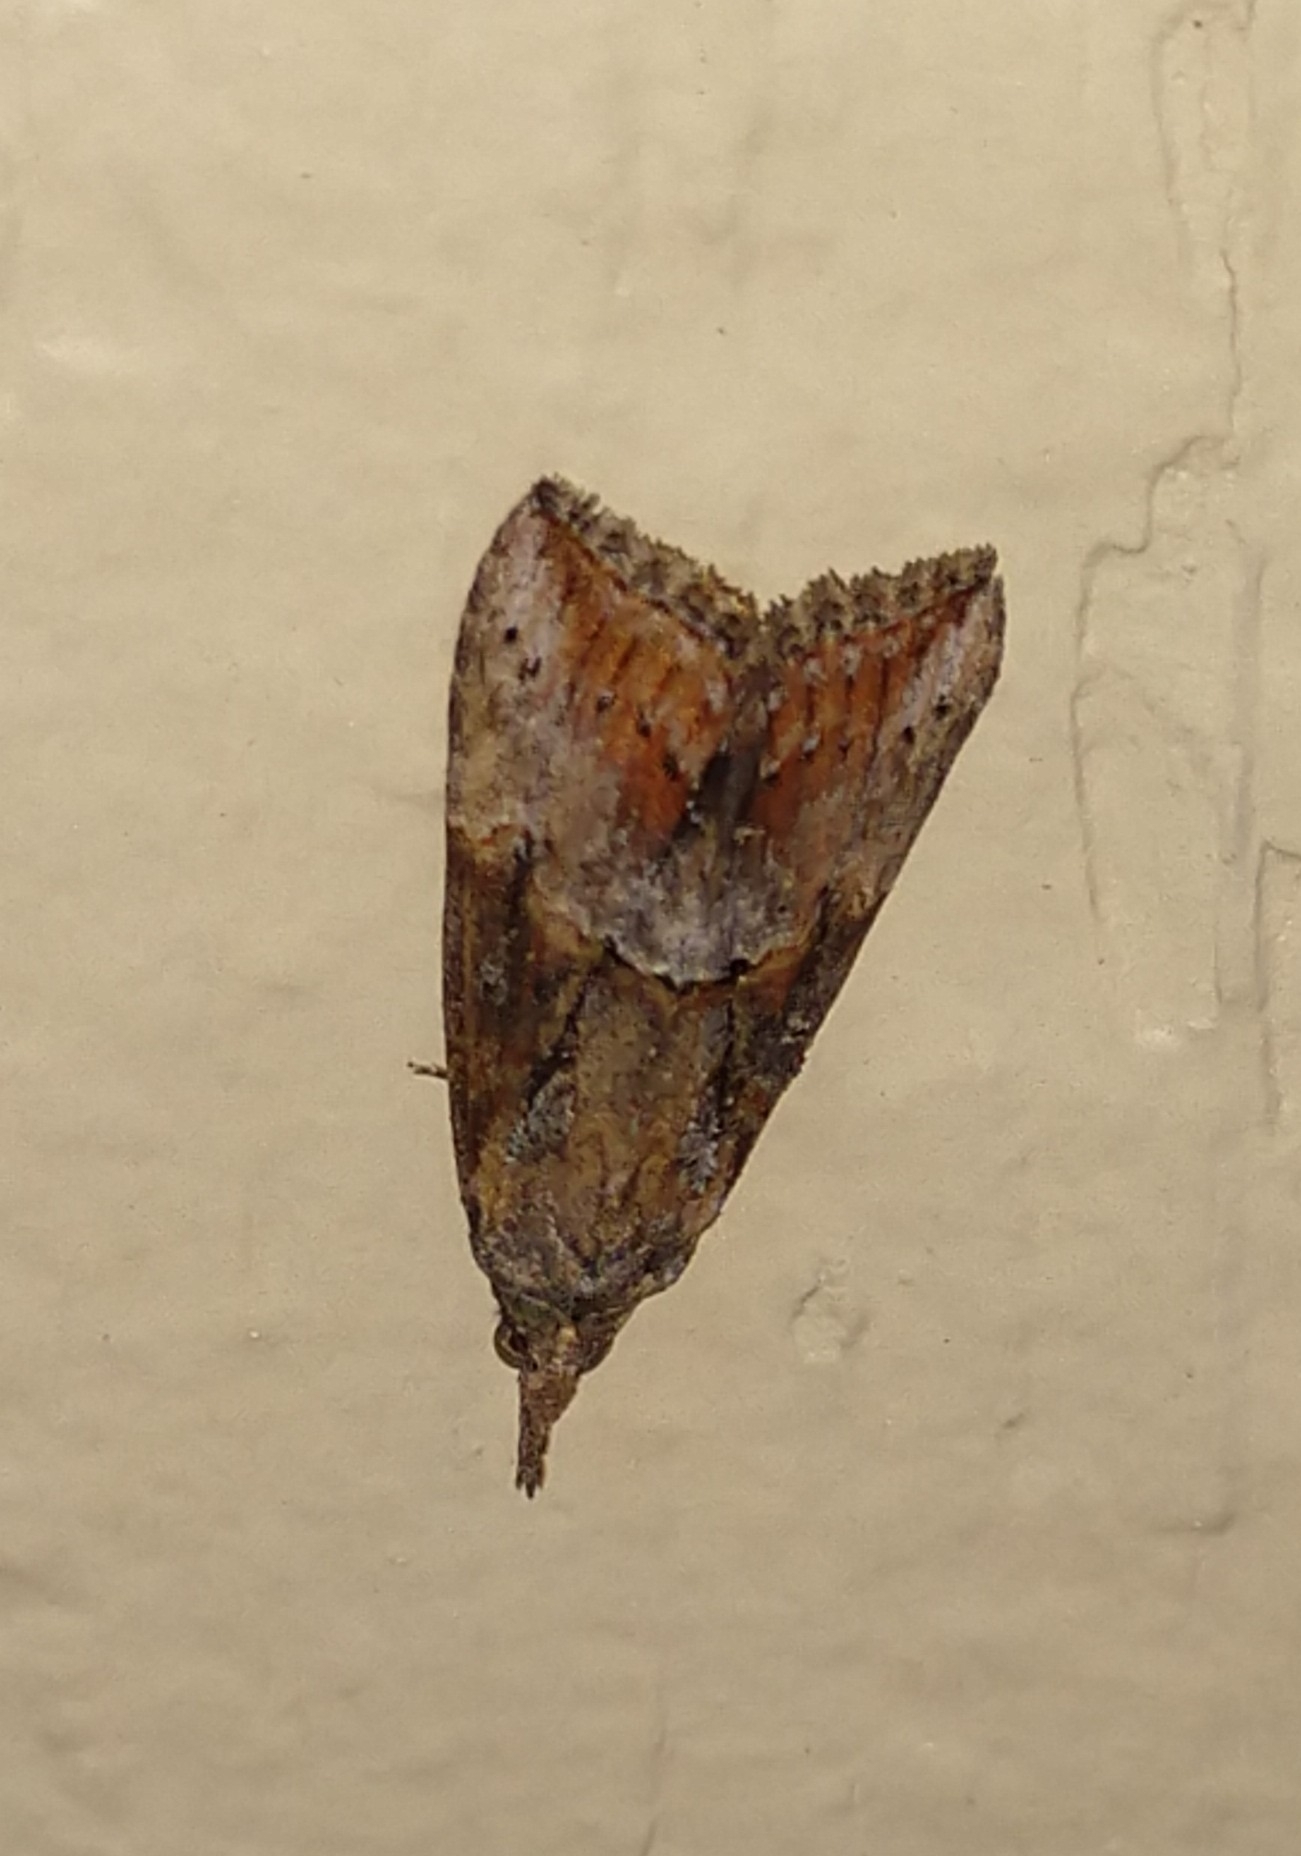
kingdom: Animalia
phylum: Arthropoda
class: Insecta
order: Lepidoptera
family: Erebidae
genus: Hypena
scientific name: Hypena scabra
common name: Green cloverworm
